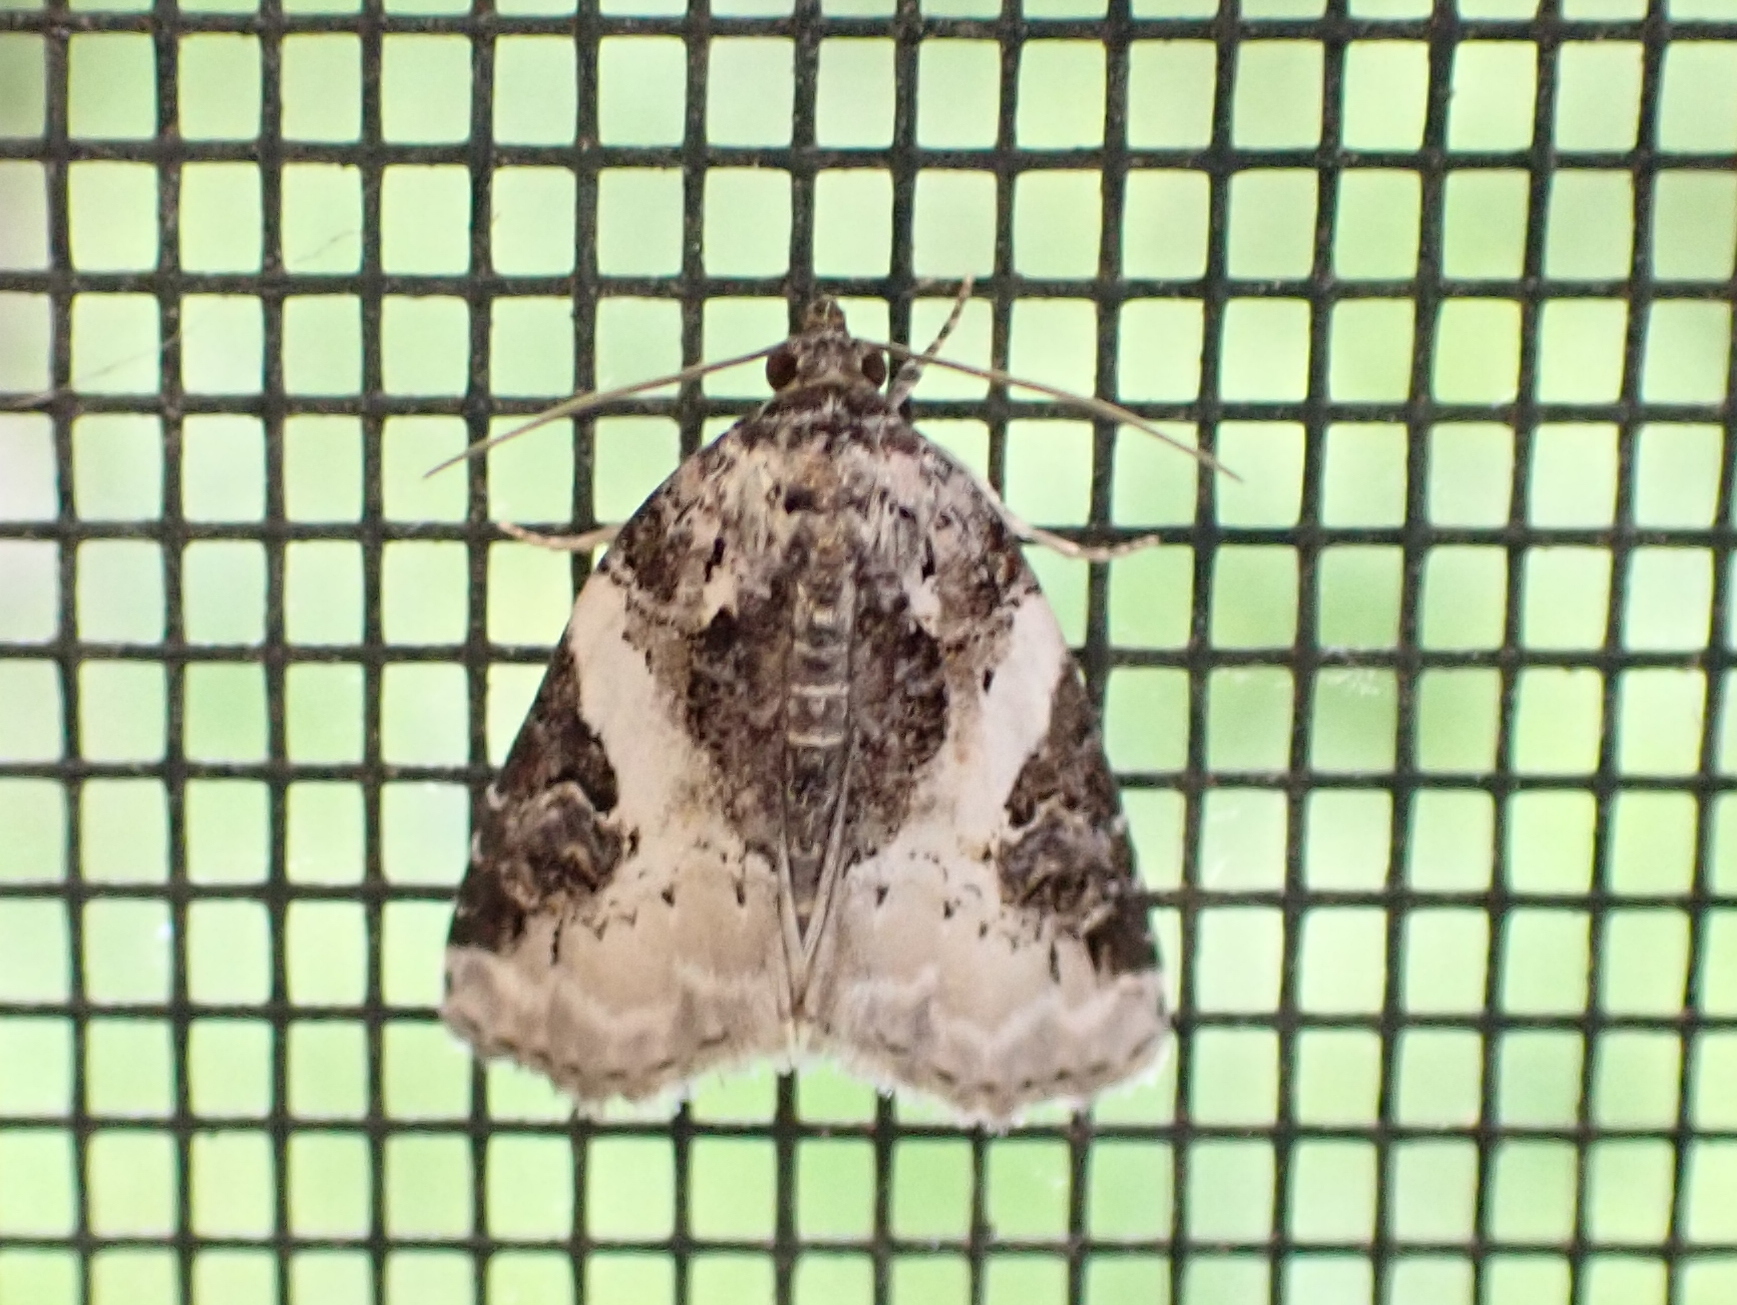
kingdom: Animalia
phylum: Arthropoda
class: Insecta
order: Lepidoptera
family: Noctuidae
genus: Pseudeustrotia
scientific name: Pseudeustrotia carneola
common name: Pink-barred lithacodia moth
